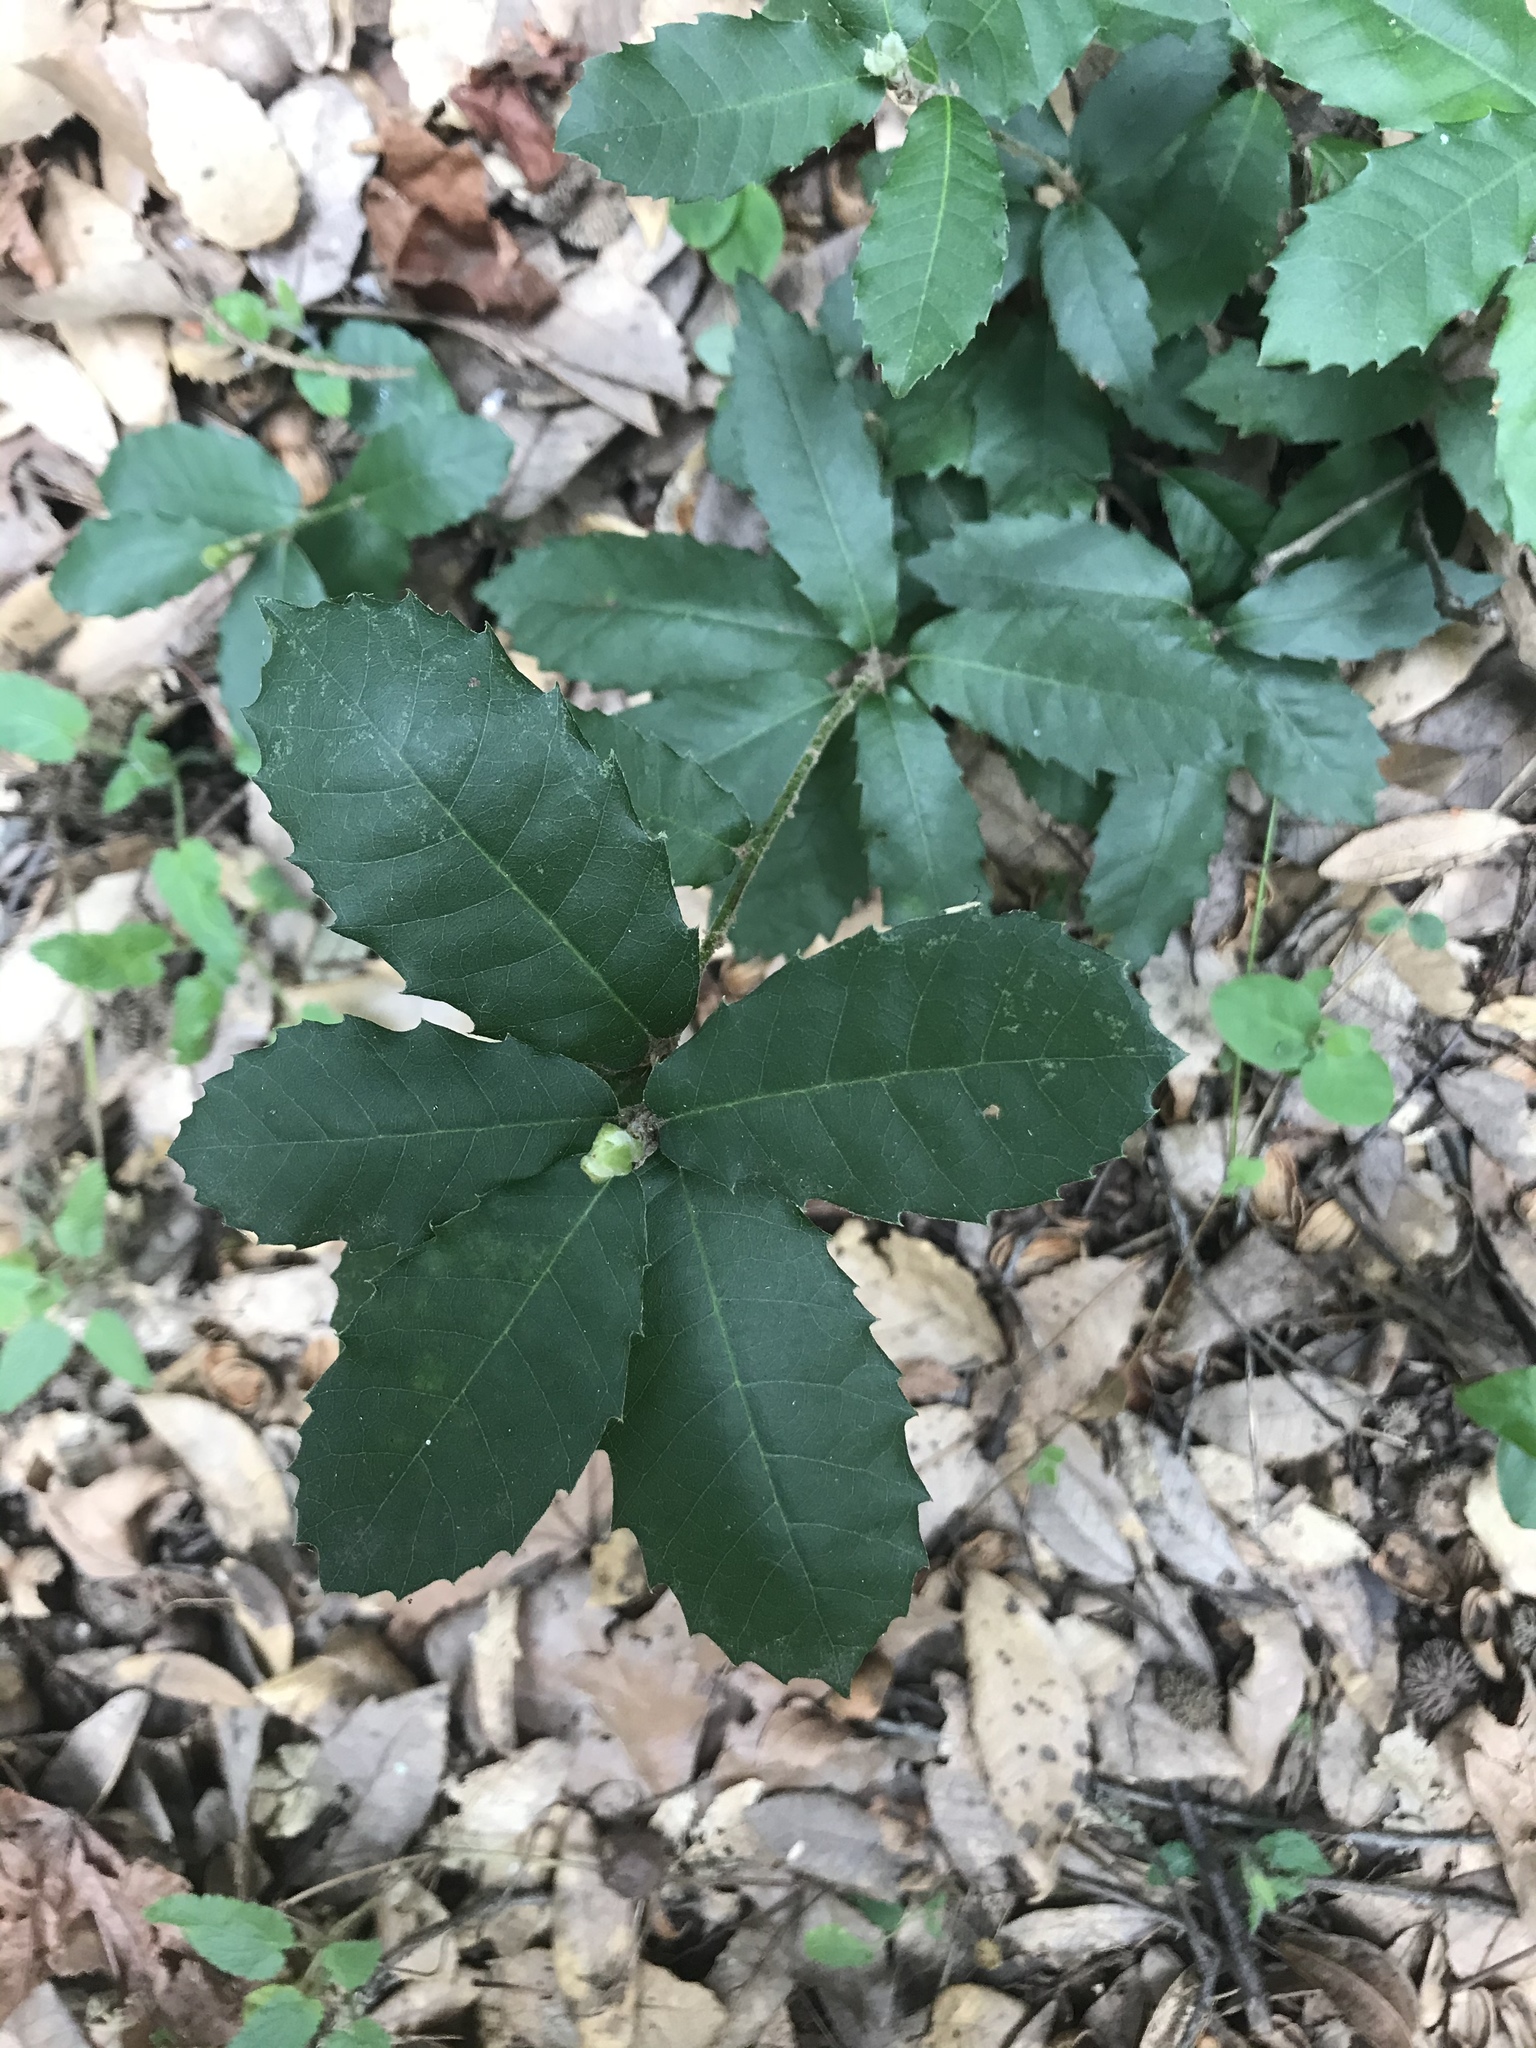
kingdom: Plantae
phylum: Tracheophyta
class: Magnoliopsida
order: Fagales
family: Fagaceae
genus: Notholithocarpus
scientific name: Notholithocarpus densiflorus
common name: Tan bark oak
